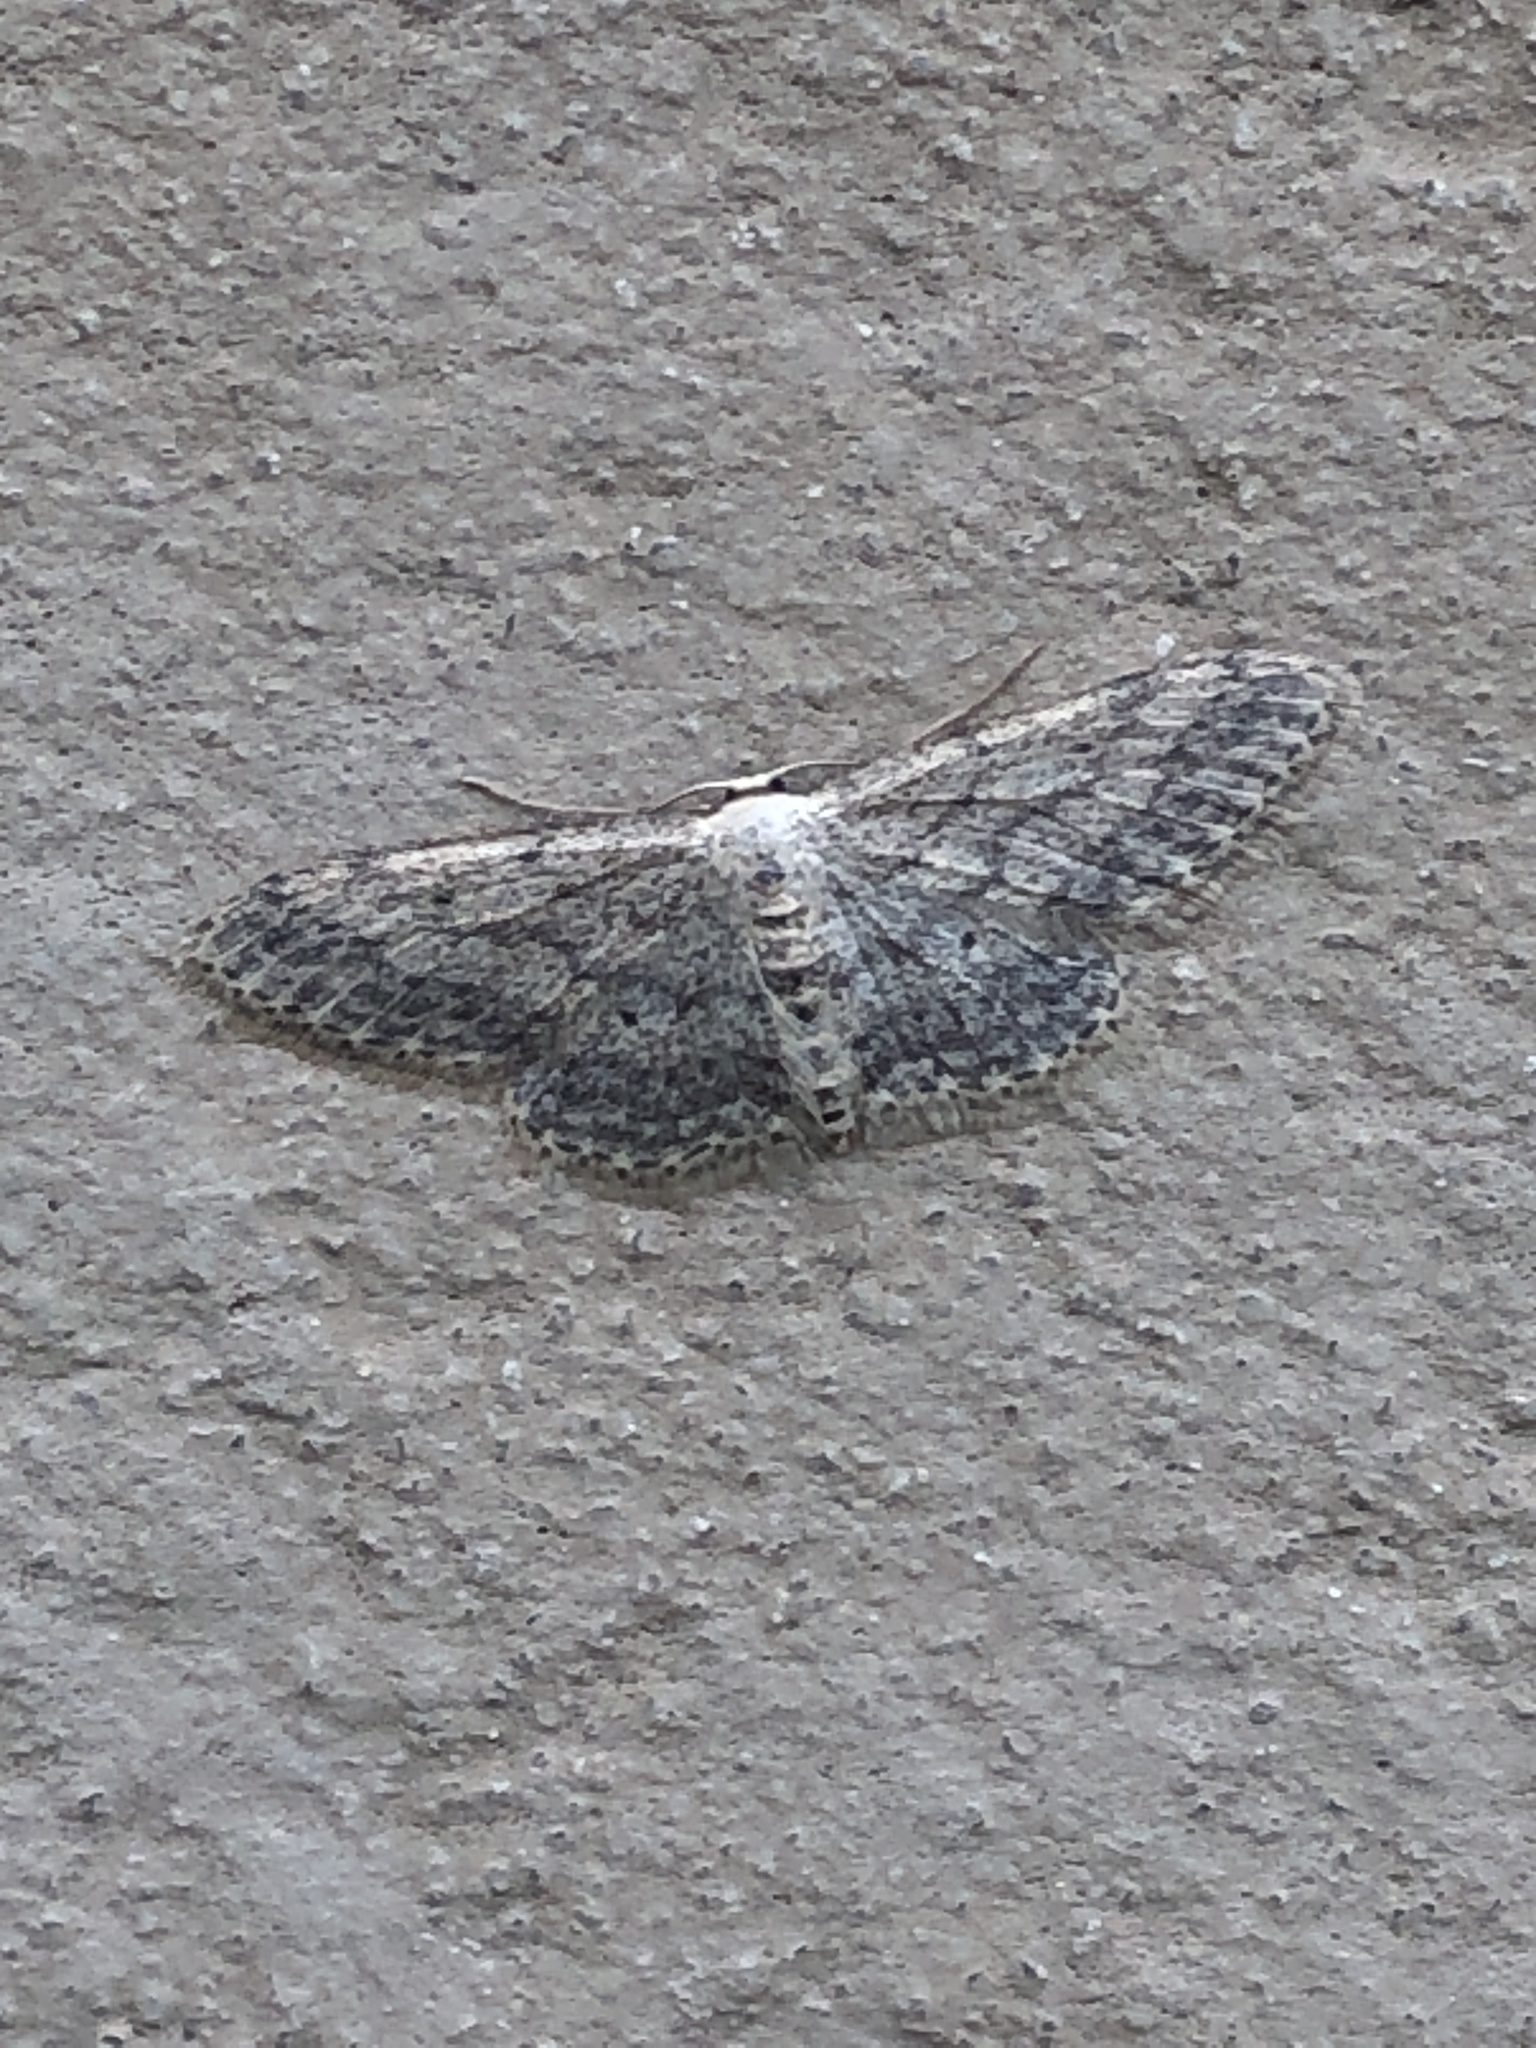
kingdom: Animalia
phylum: Arthropoda
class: Insecta
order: Lepidoptera
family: Geometridae
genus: Idaea
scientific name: Idaea seriata
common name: Small dusty wave
